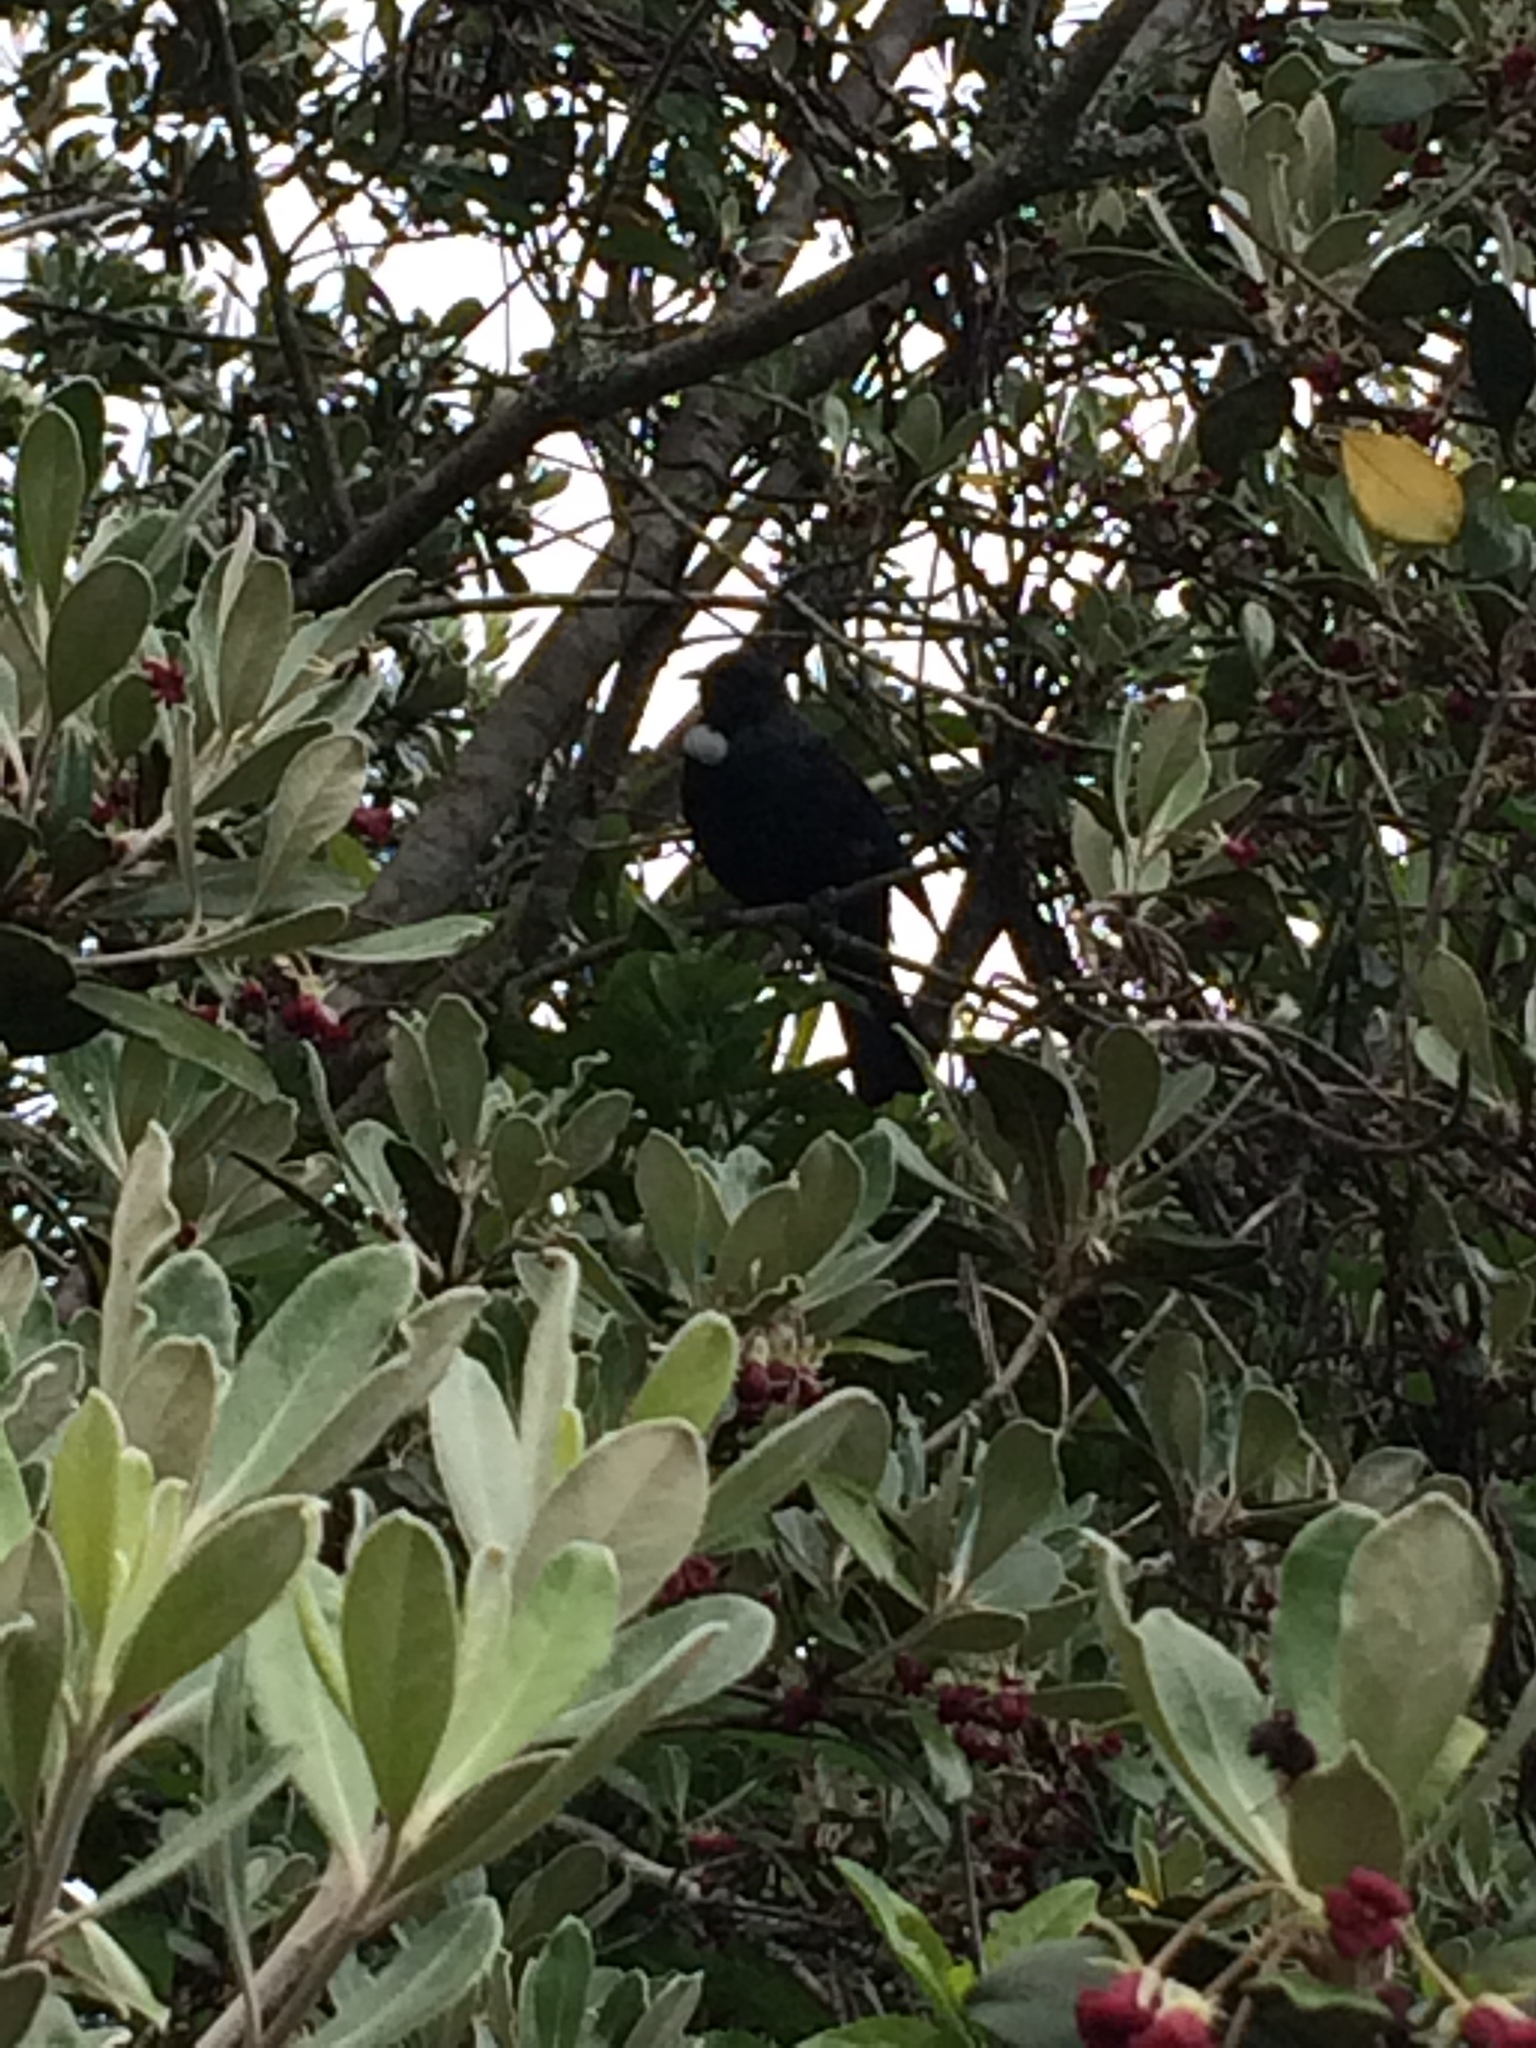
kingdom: Animalia
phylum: Chordata
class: Aves
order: Passeriformes
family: Meliphagidae
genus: Prosthemadera
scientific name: Prosthemadera novaeseelandiae
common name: Tui
